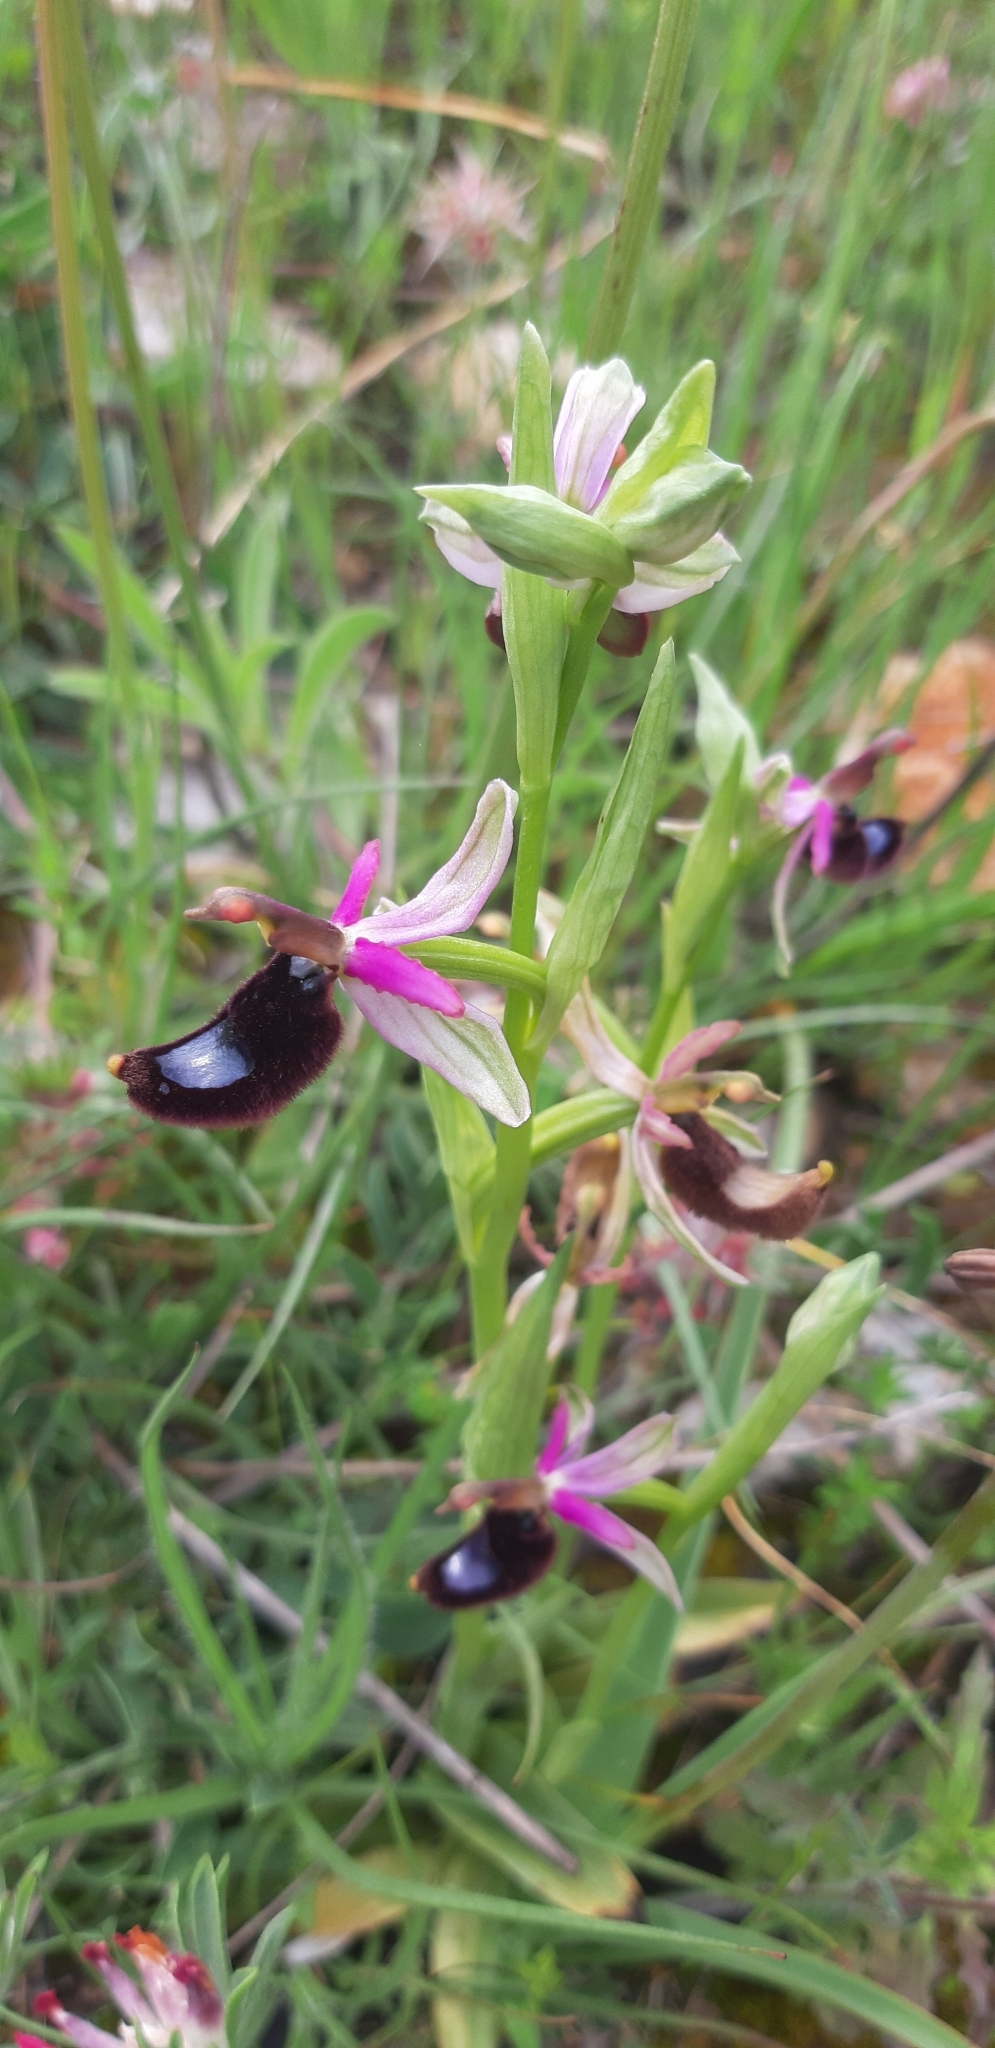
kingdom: Plantae
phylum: Tracheophyta
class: Liliopsida
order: Asparagales
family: Orchidaceae
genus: Ophrys
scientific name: Ophrys bertolonii
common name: Bertoloni's bee orchid
